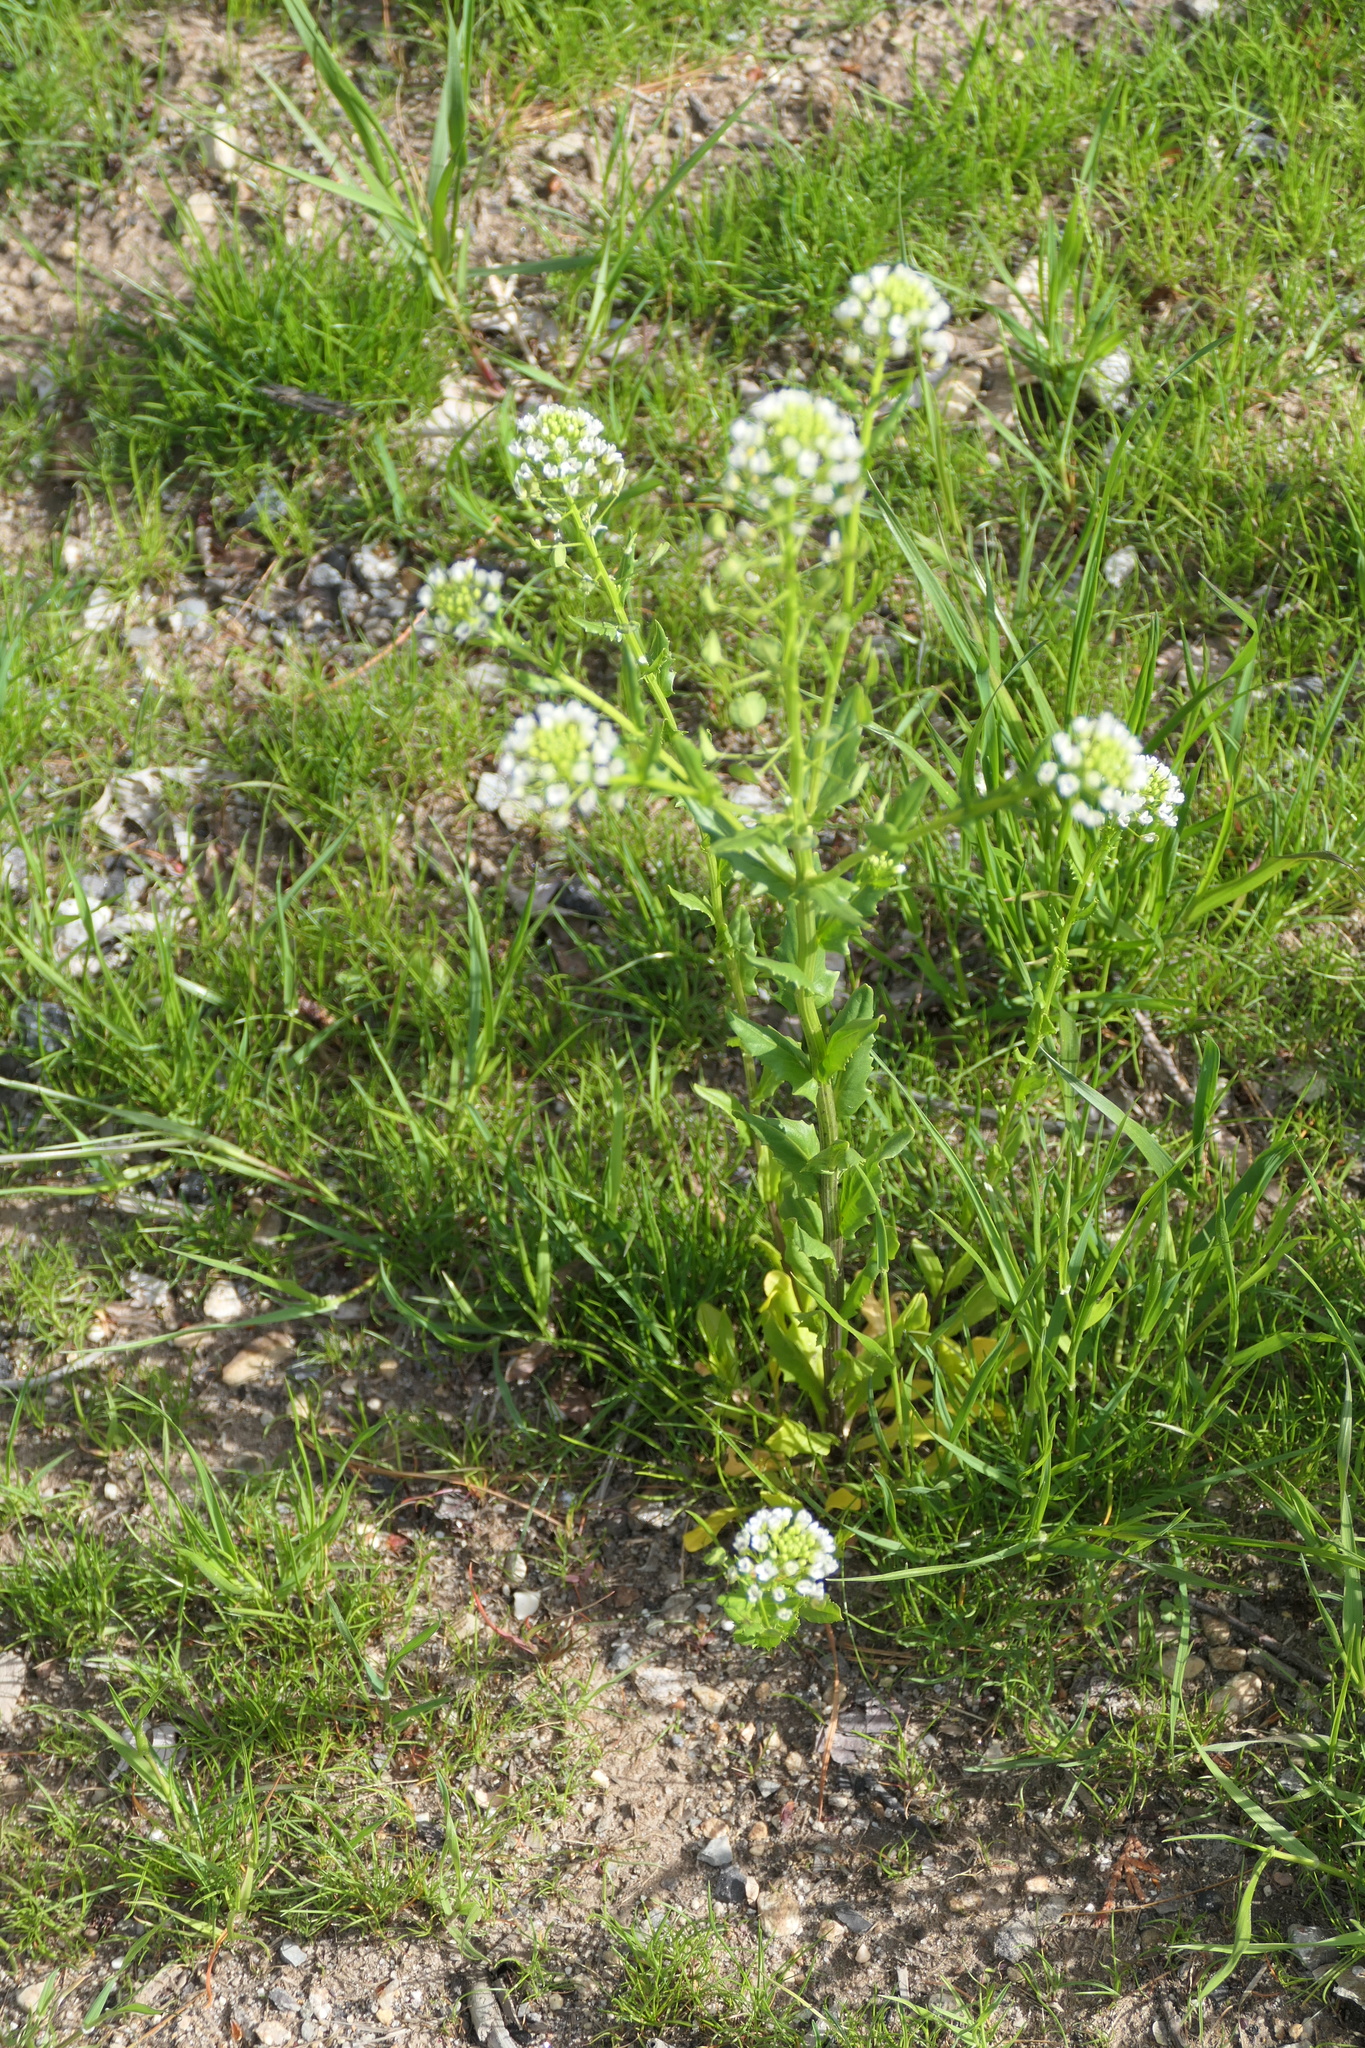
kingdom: Plantae
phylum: Tracheophyta
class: Magnoliopsida
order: Brassicales
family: Brassicaceae
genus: Thlaspi
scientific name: Thlaspi arvense
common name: Field pennycress
